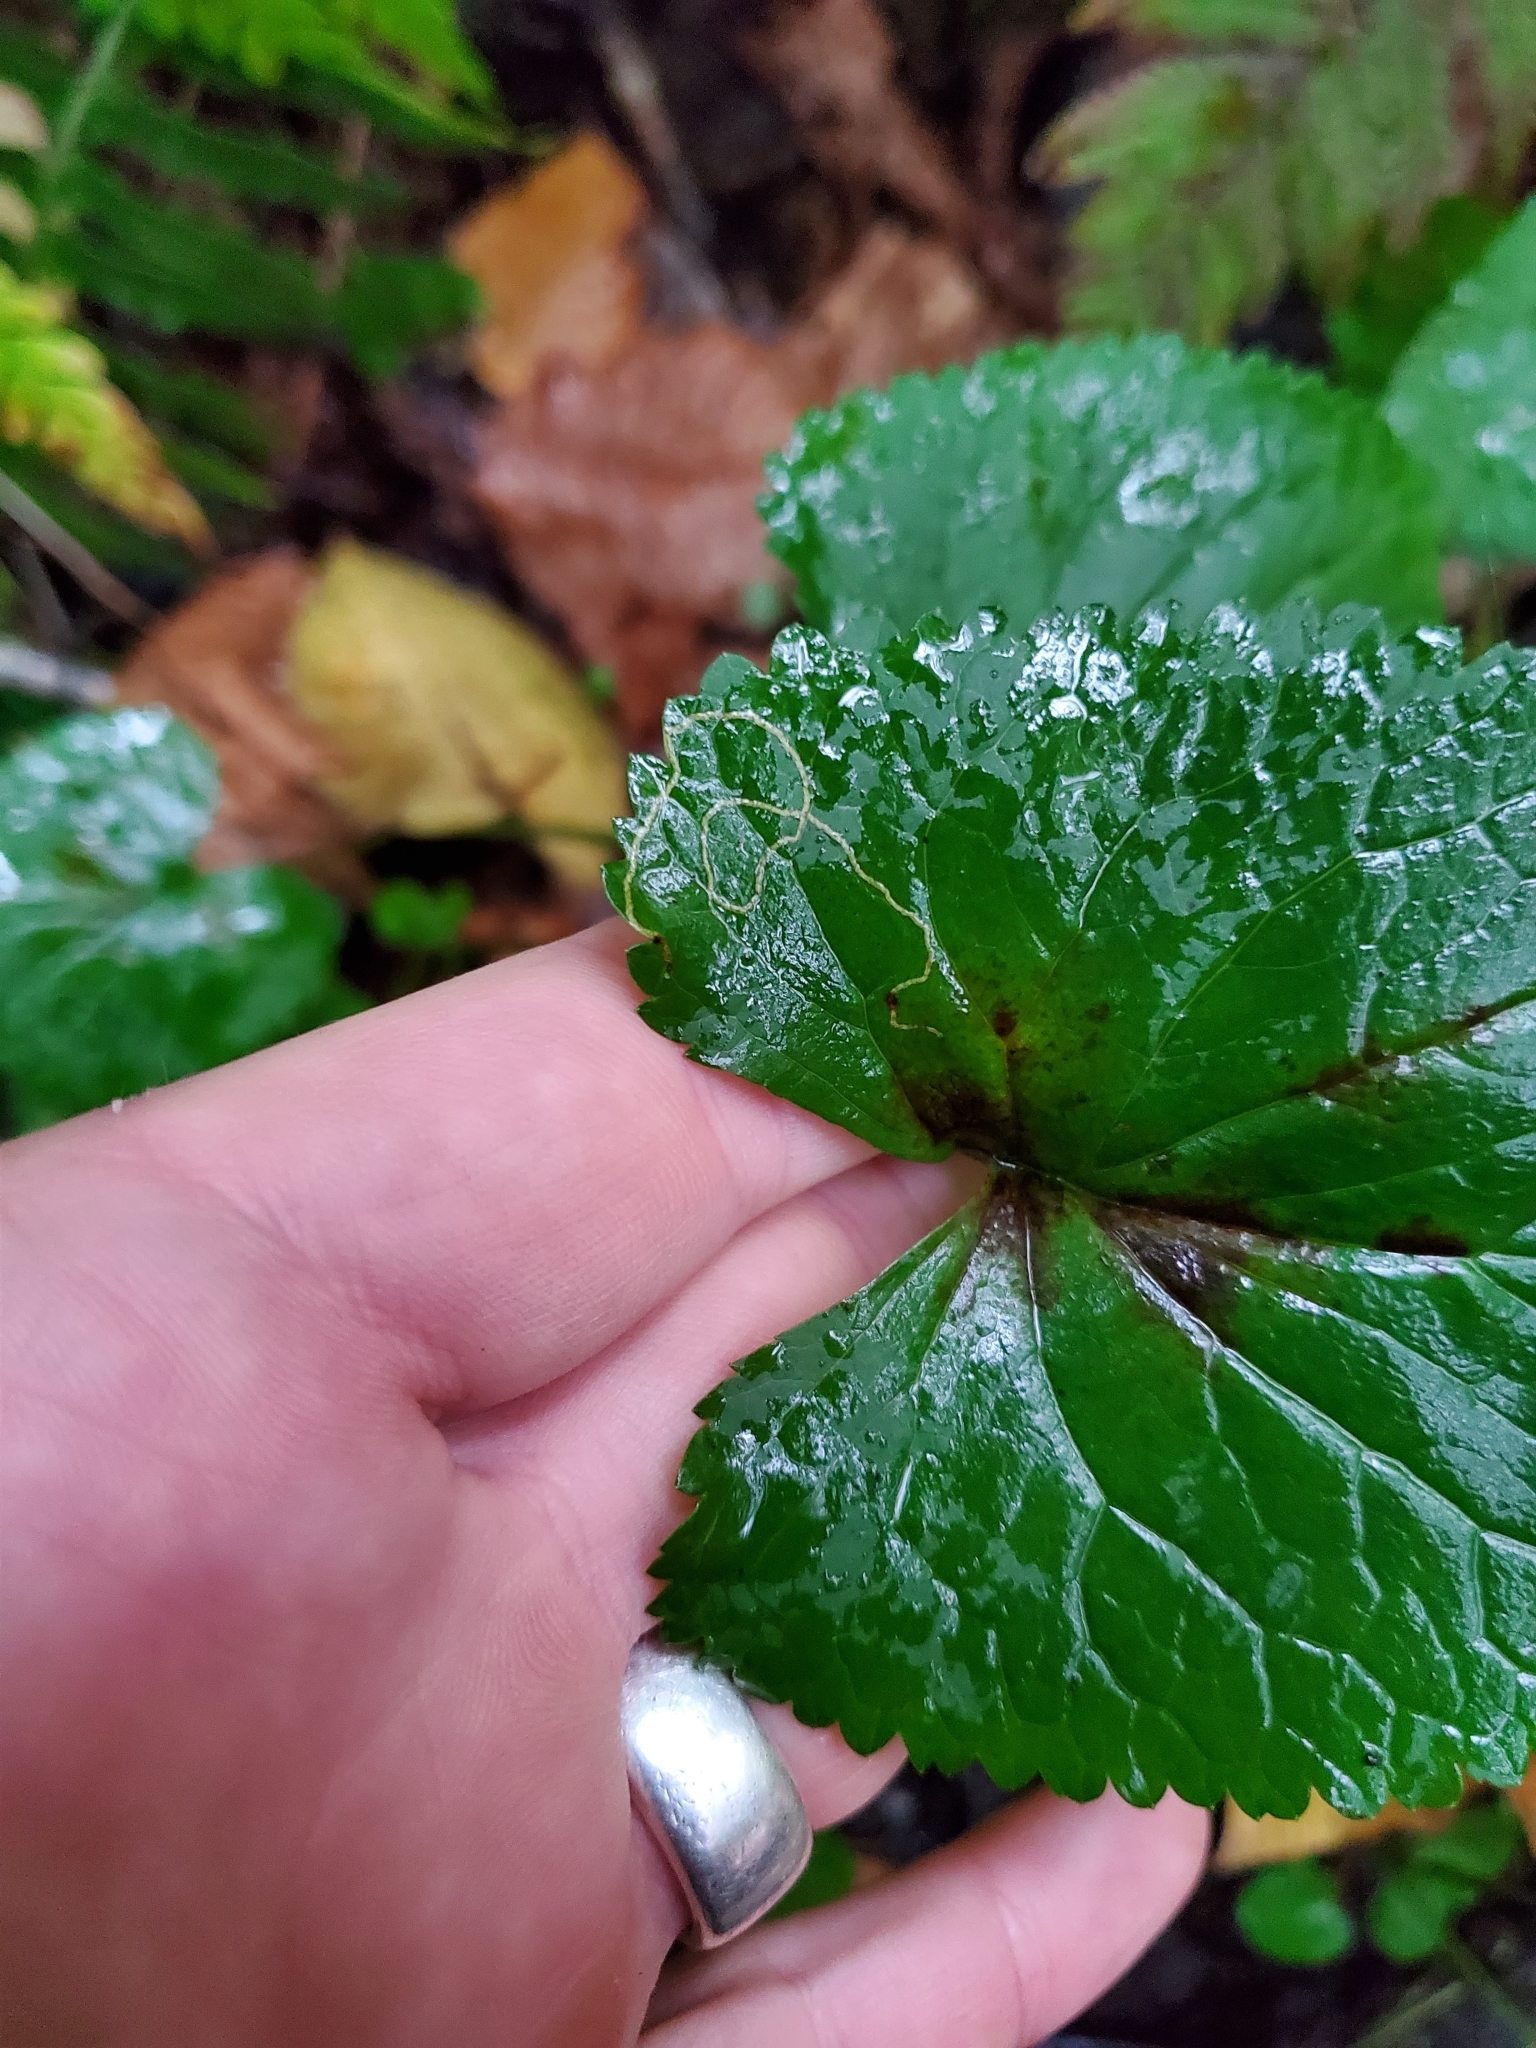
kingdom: Animalia
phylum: Arthropoda
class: Insecta
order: Lepidoptera
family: Gracillariidae
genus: Phyllocnistis
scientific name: Phyllocnistis insignis
